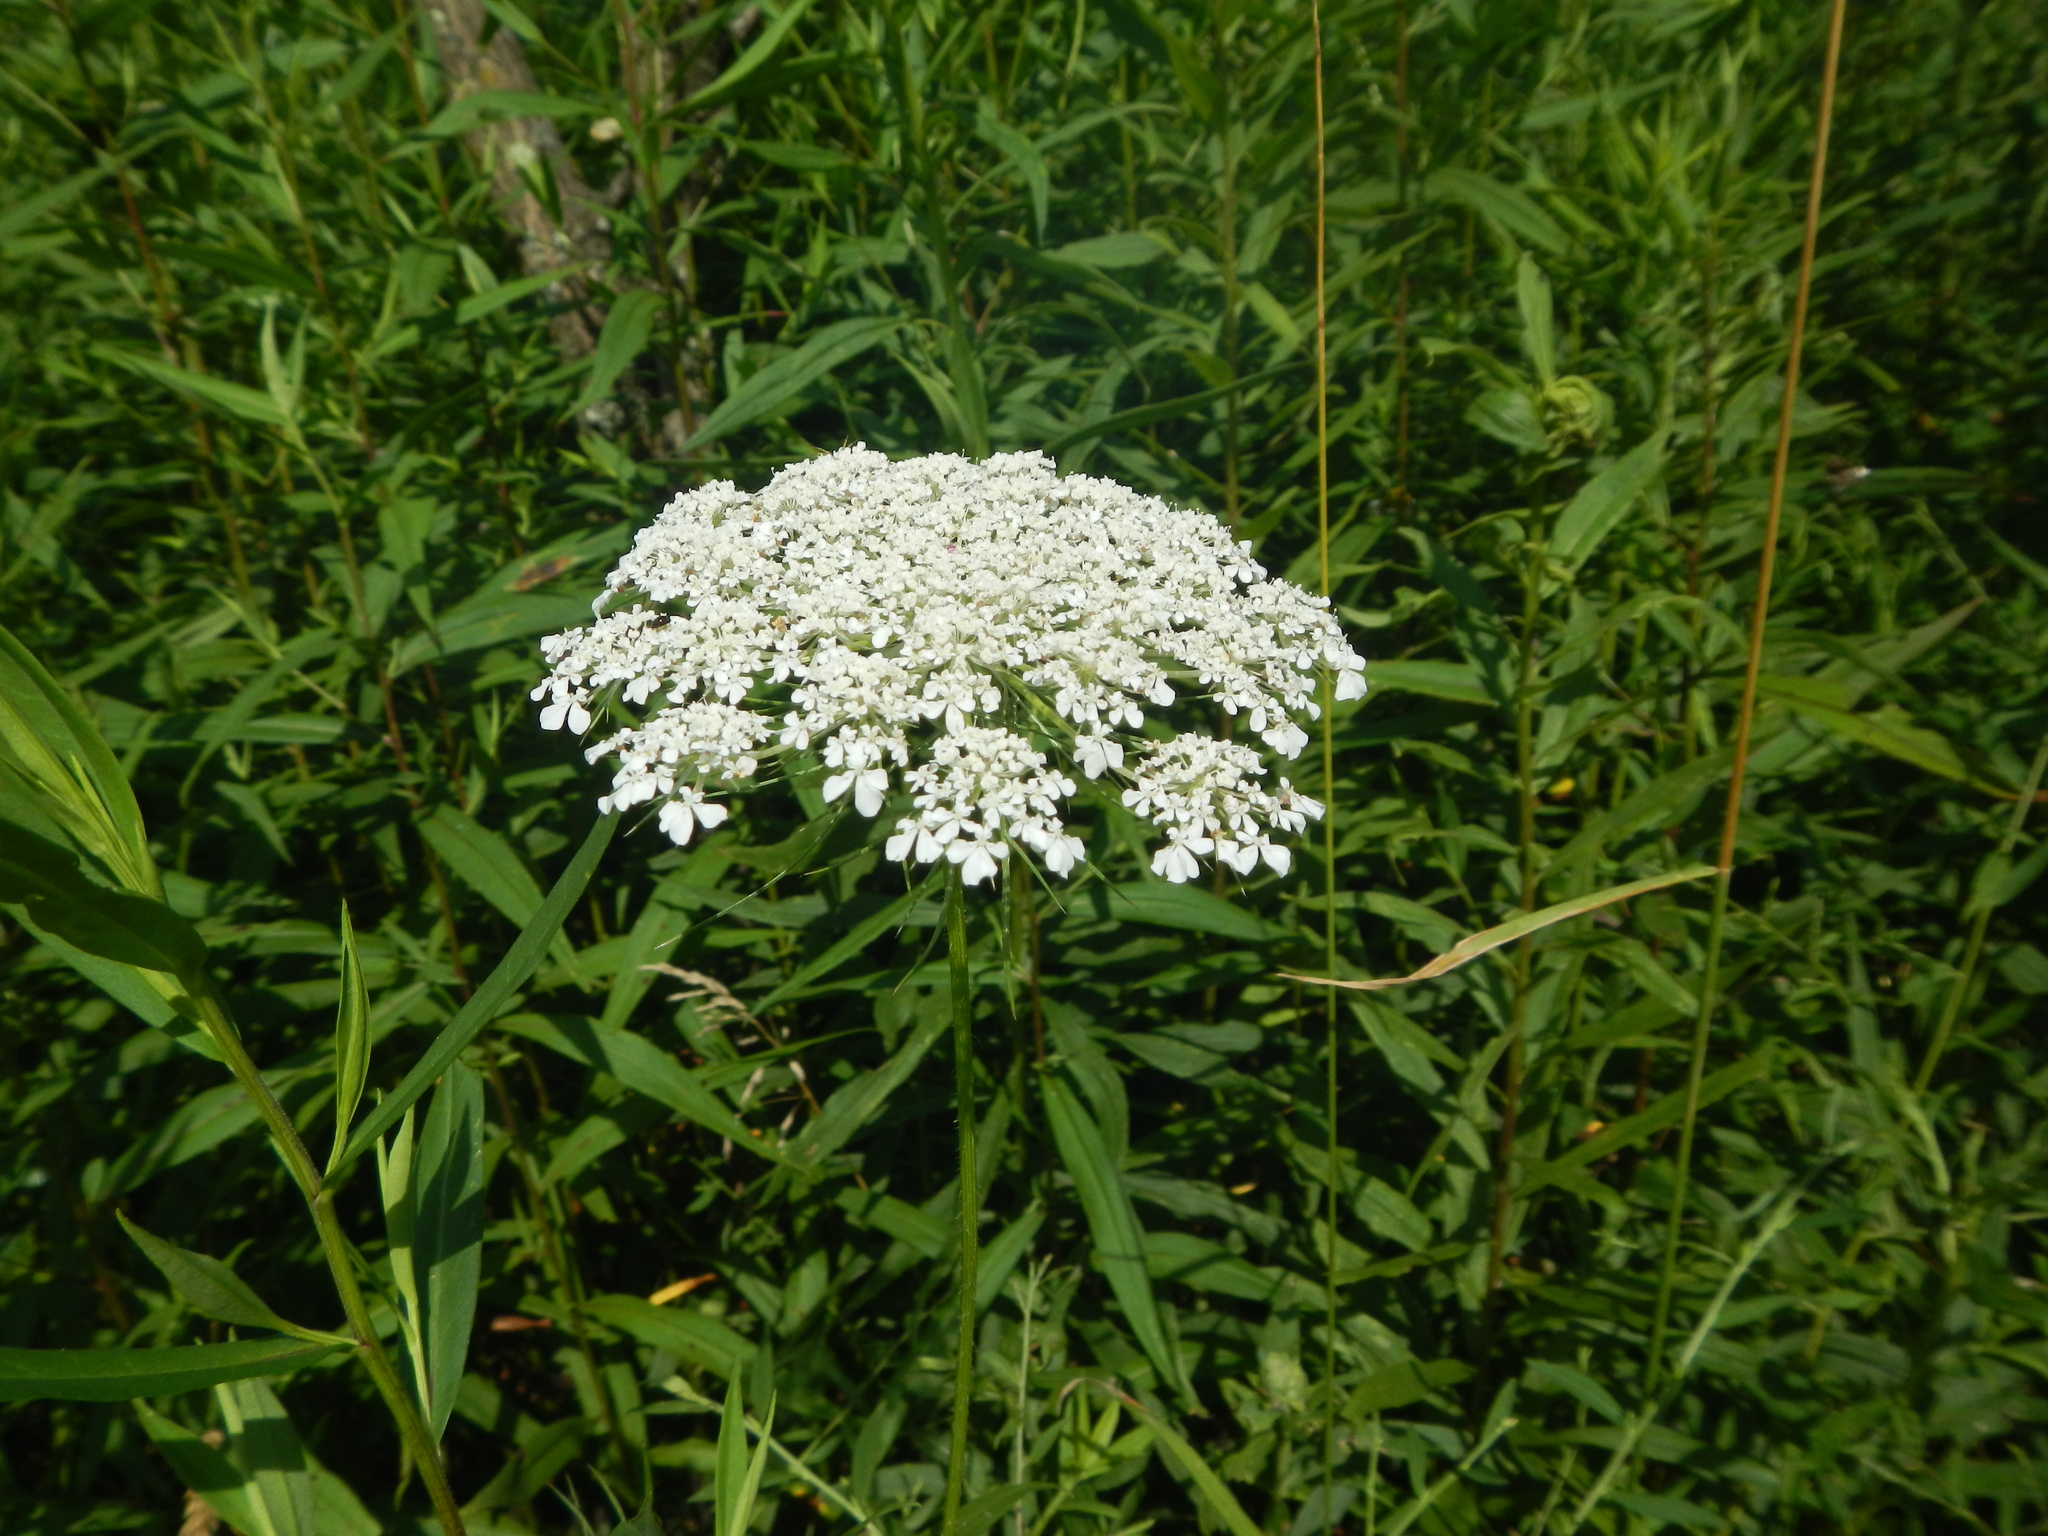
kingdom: Plantae
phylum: Tracheophyta
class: Magnoliopsida
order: Apiales
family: Apiaceae
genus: Daucus
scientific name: Daucus carota
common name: Wild carrot
